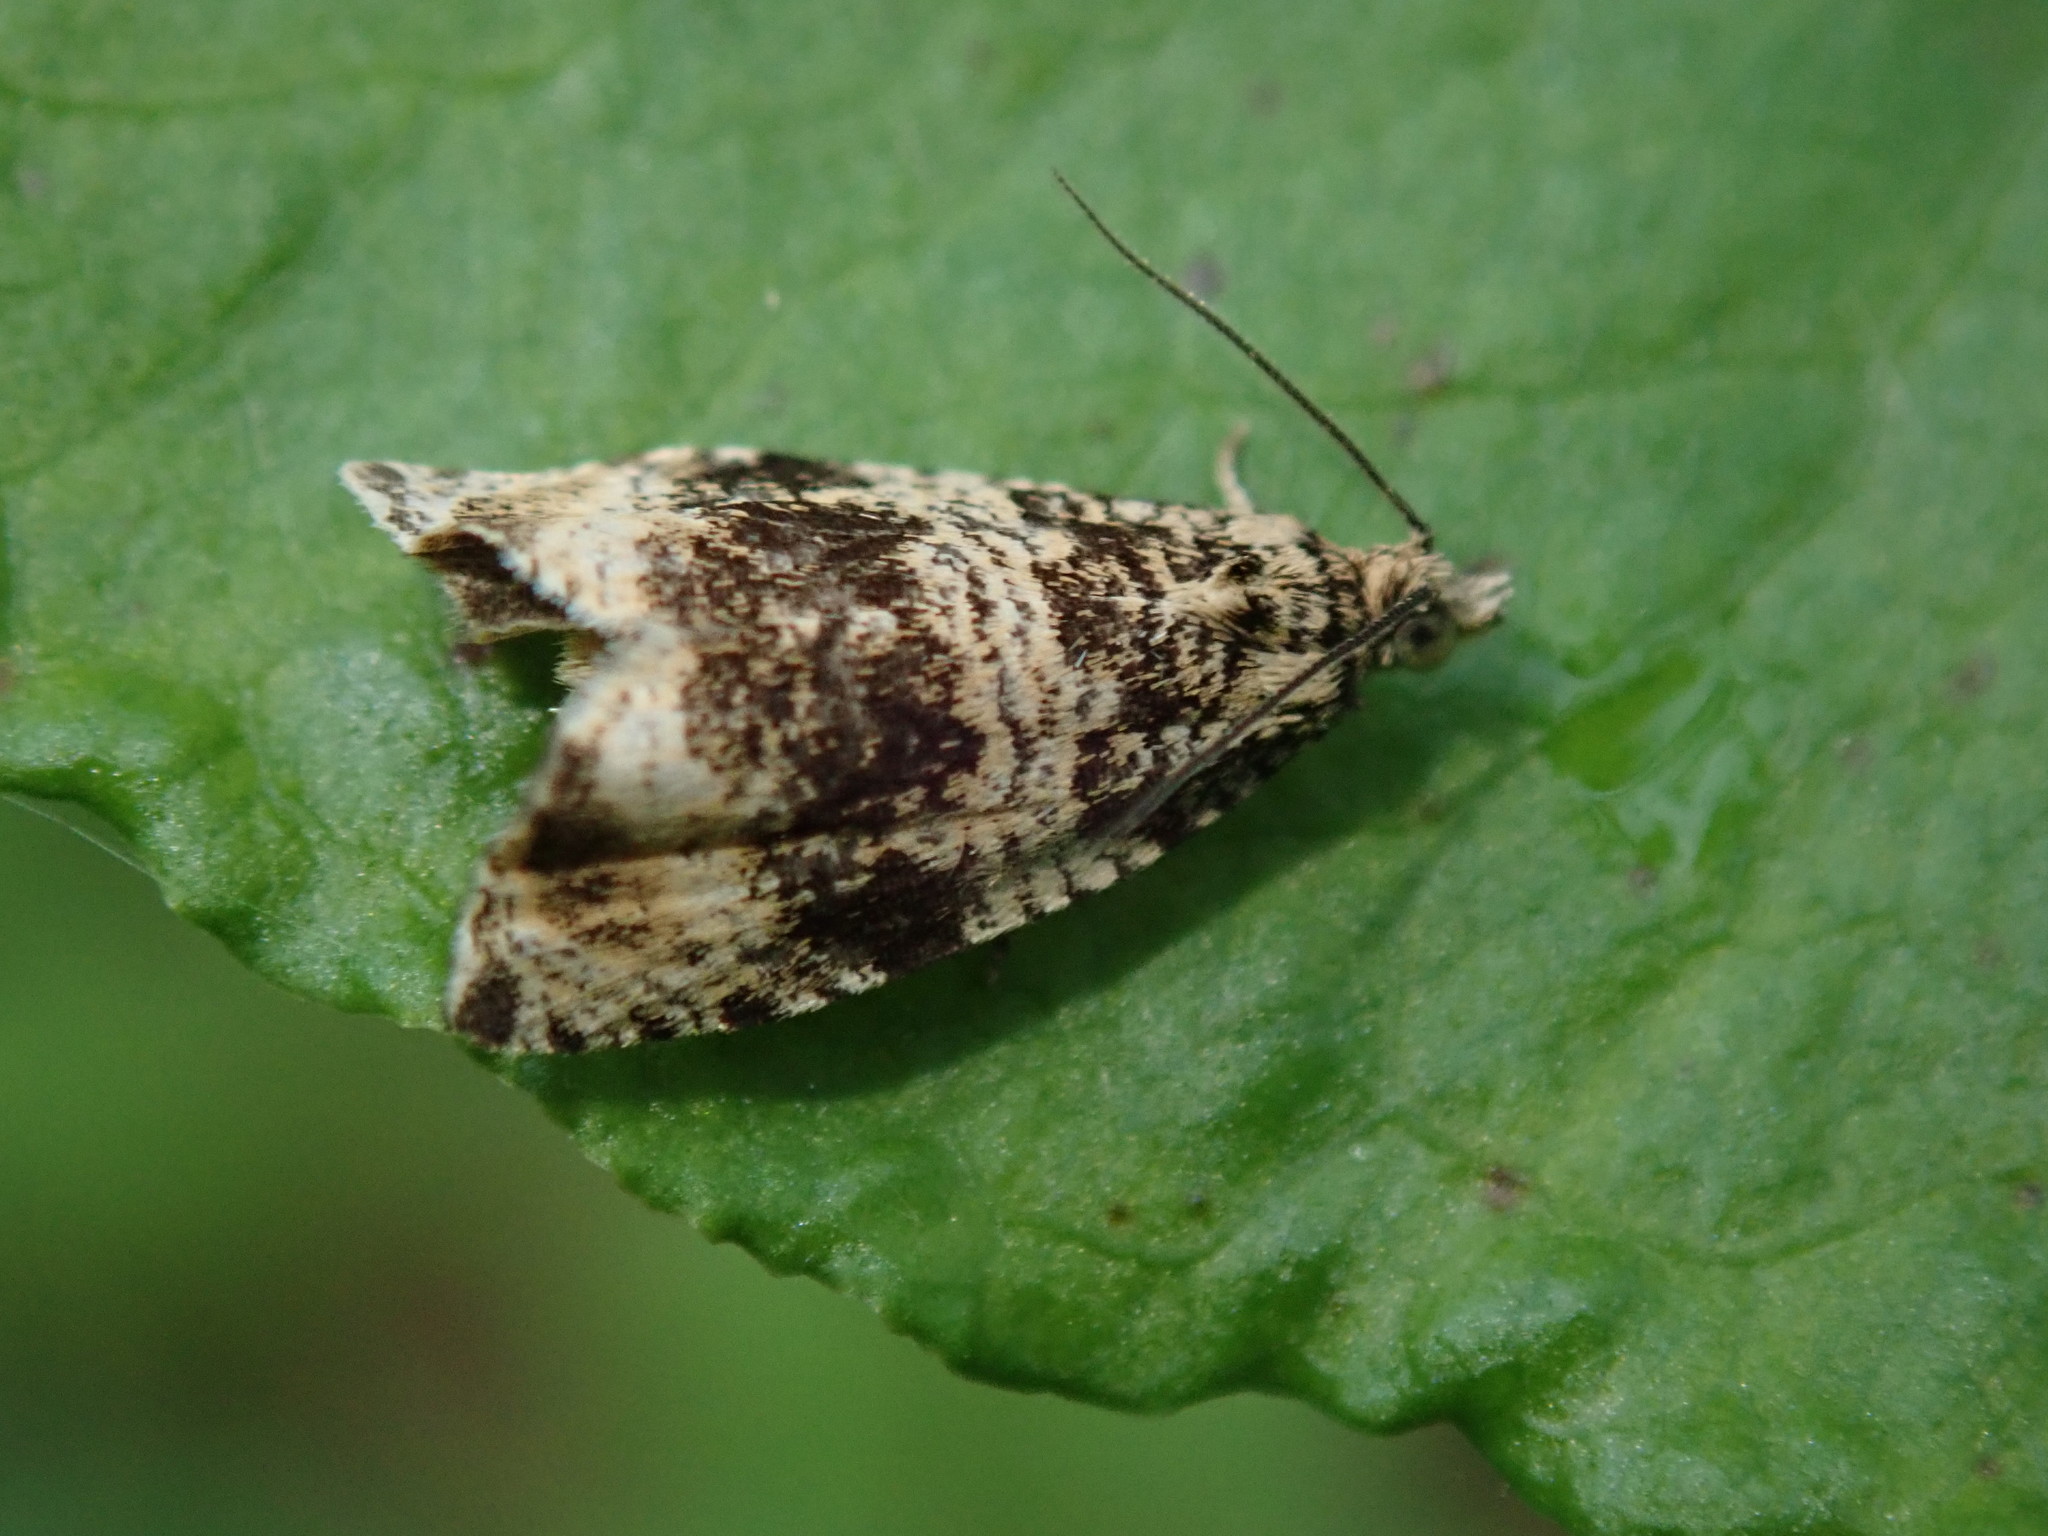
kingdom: Animalia
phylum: Arthropoda
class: Insecta
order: Lepidoptera
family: Tortricidae
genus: Syricoris
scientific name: Syricoris lacunana
